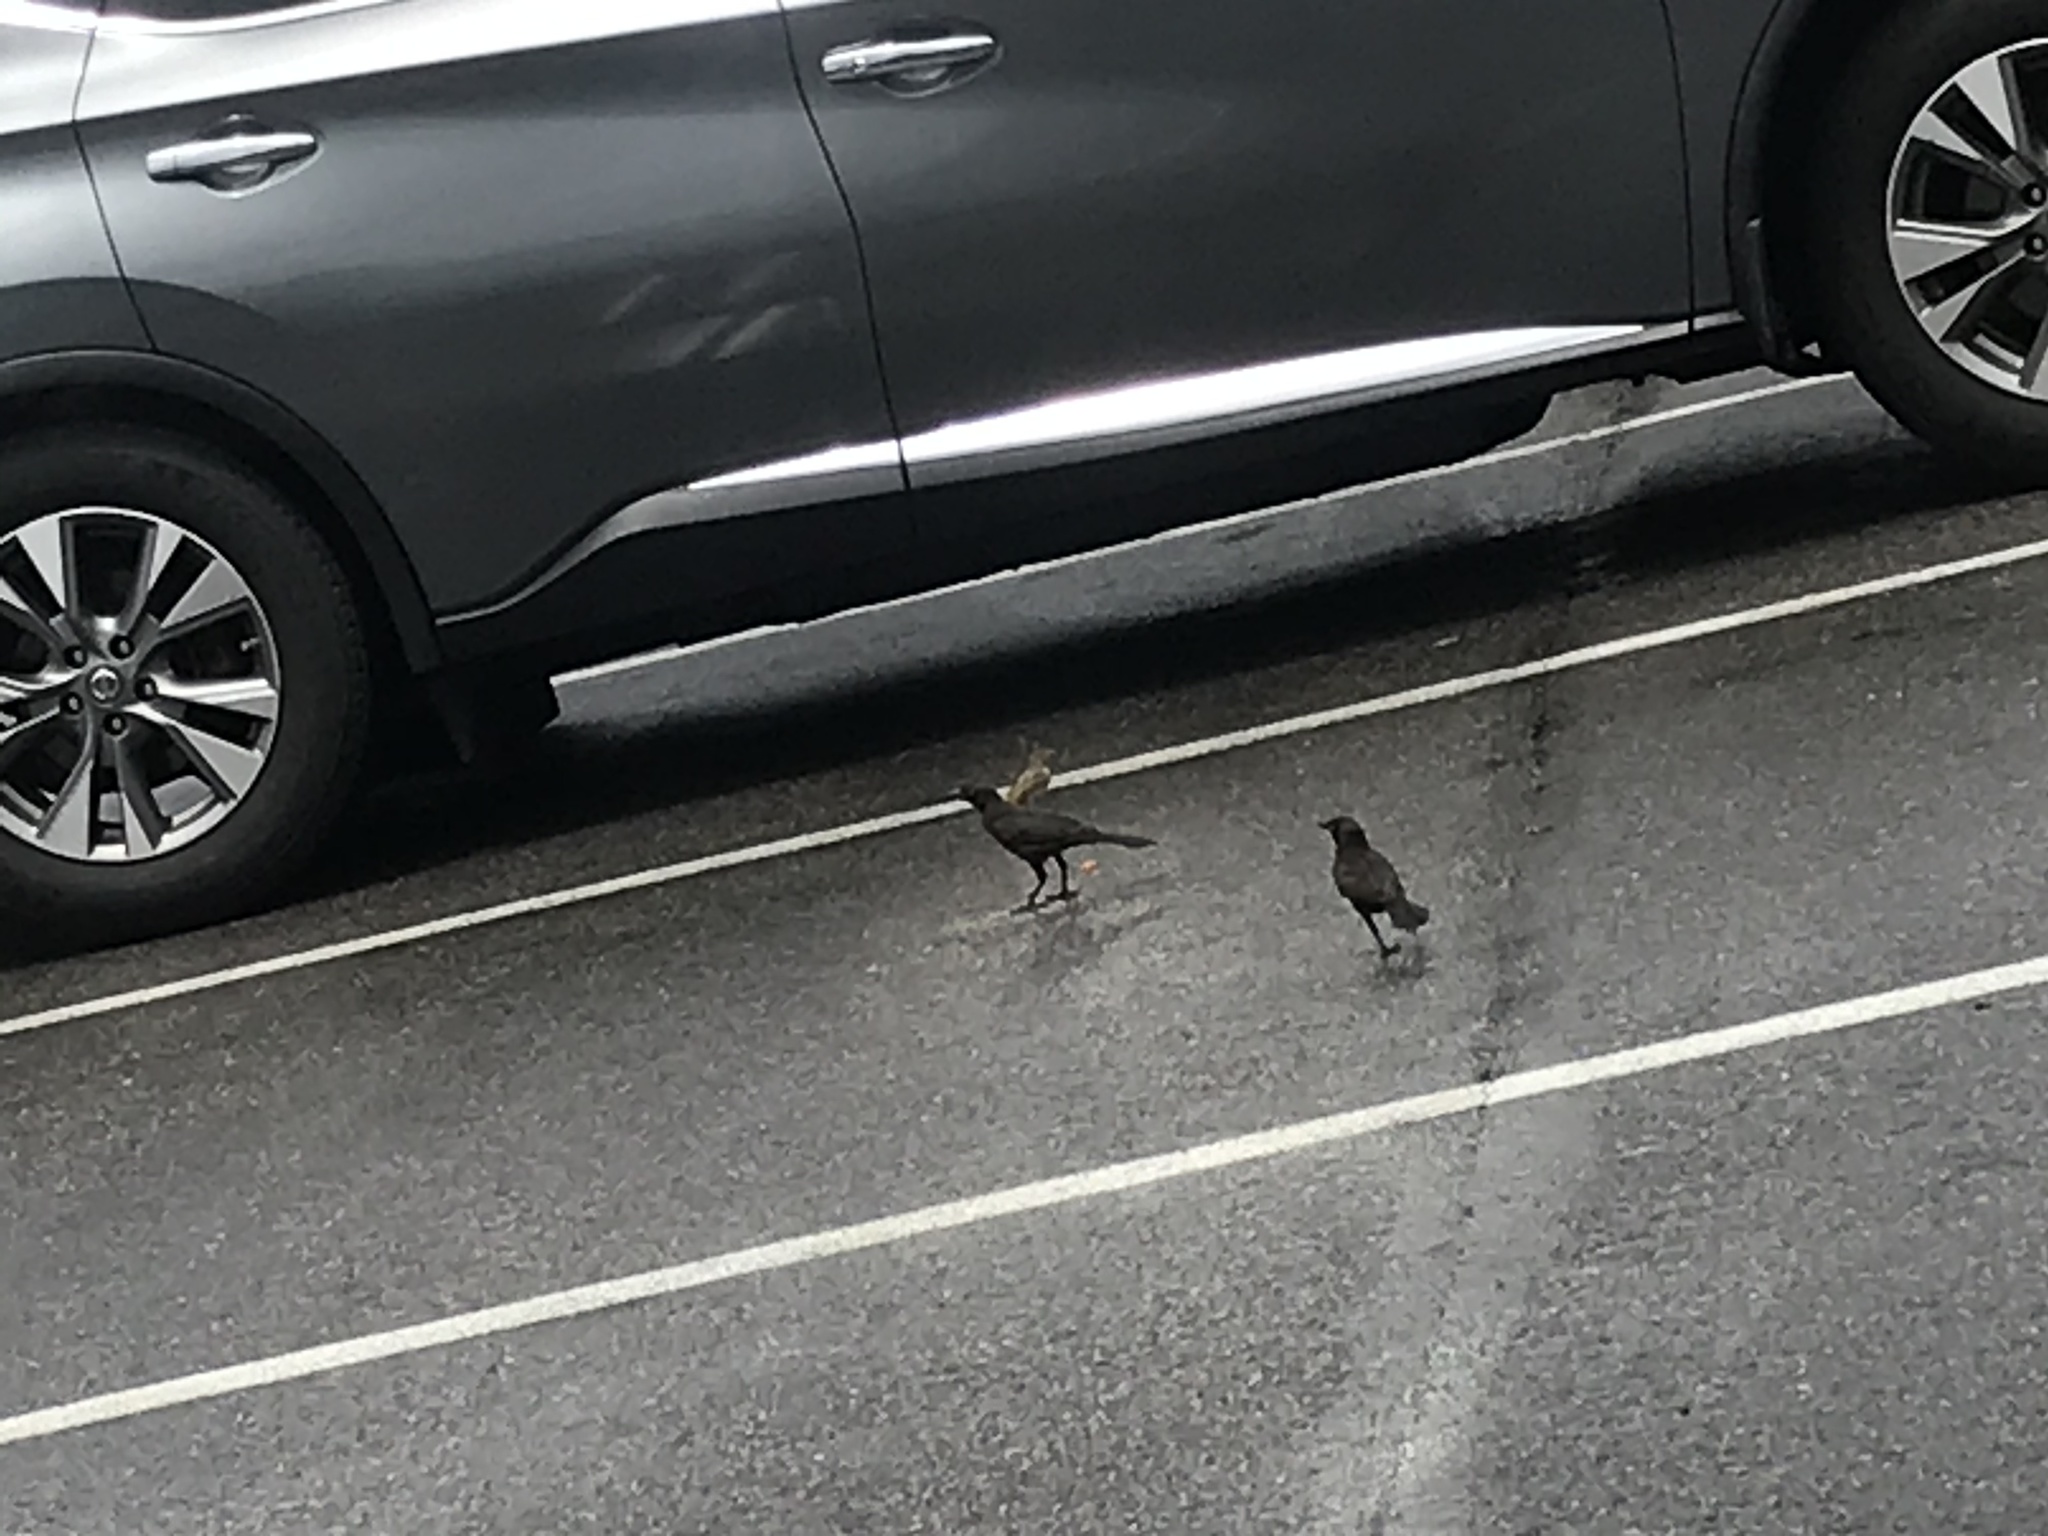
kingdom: Animalia
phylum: Chordata
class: Aves
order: Passeriformes
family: Icteridae
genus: Quiscalus
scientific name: Quiscalus quiscula
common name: Common grackle
